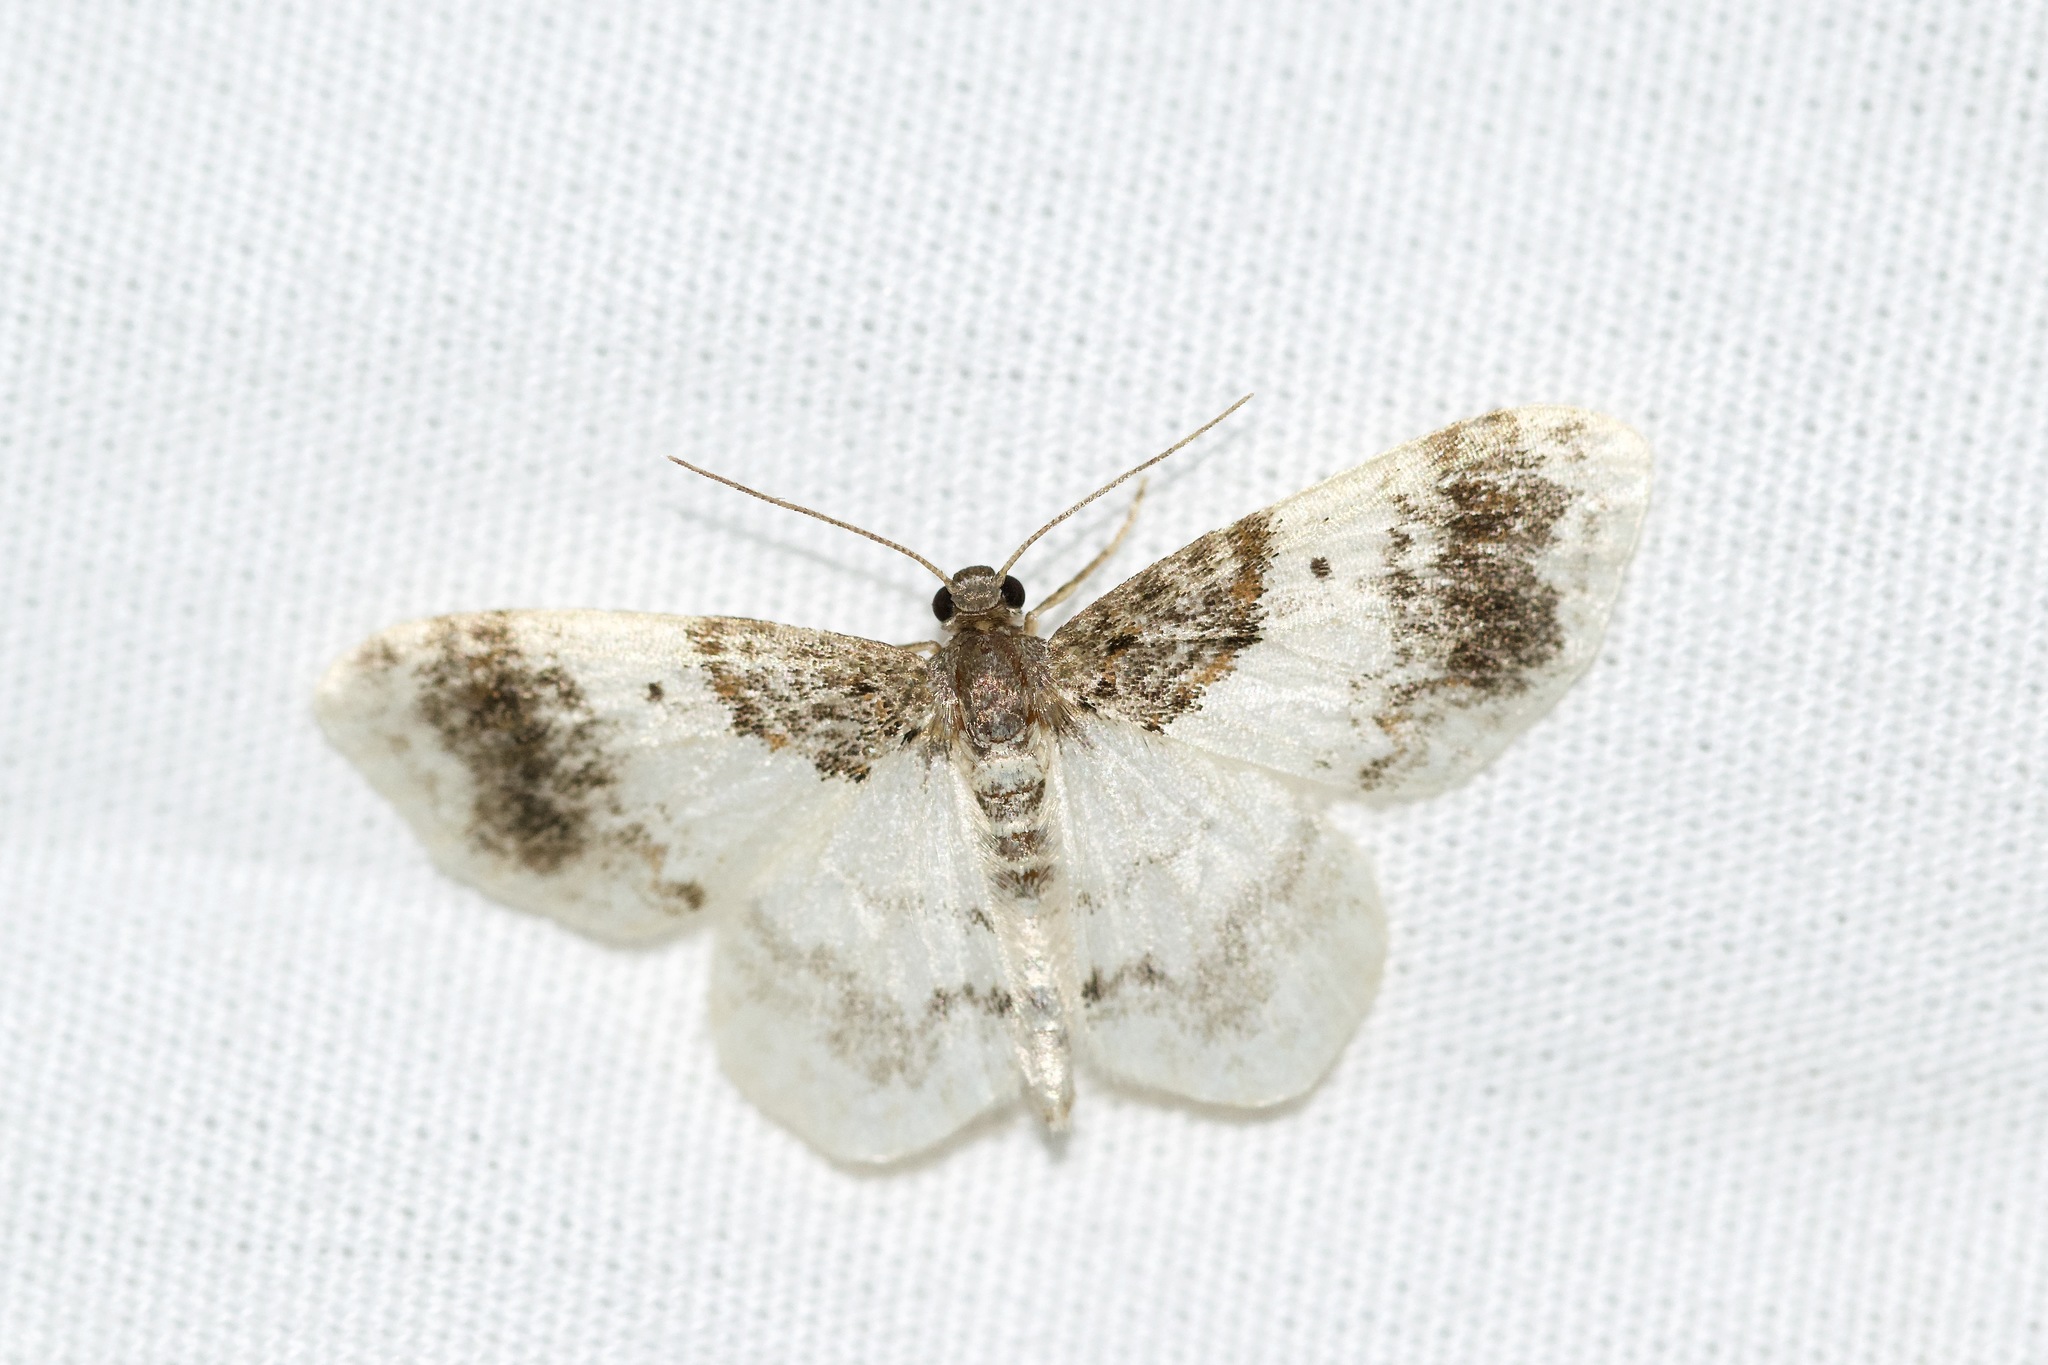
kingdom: Animalia
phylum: Arthropoda
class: Insecta
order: Lepidoptera
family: Geometridae
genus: Hydrelia
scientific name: Hydrelia condensata
